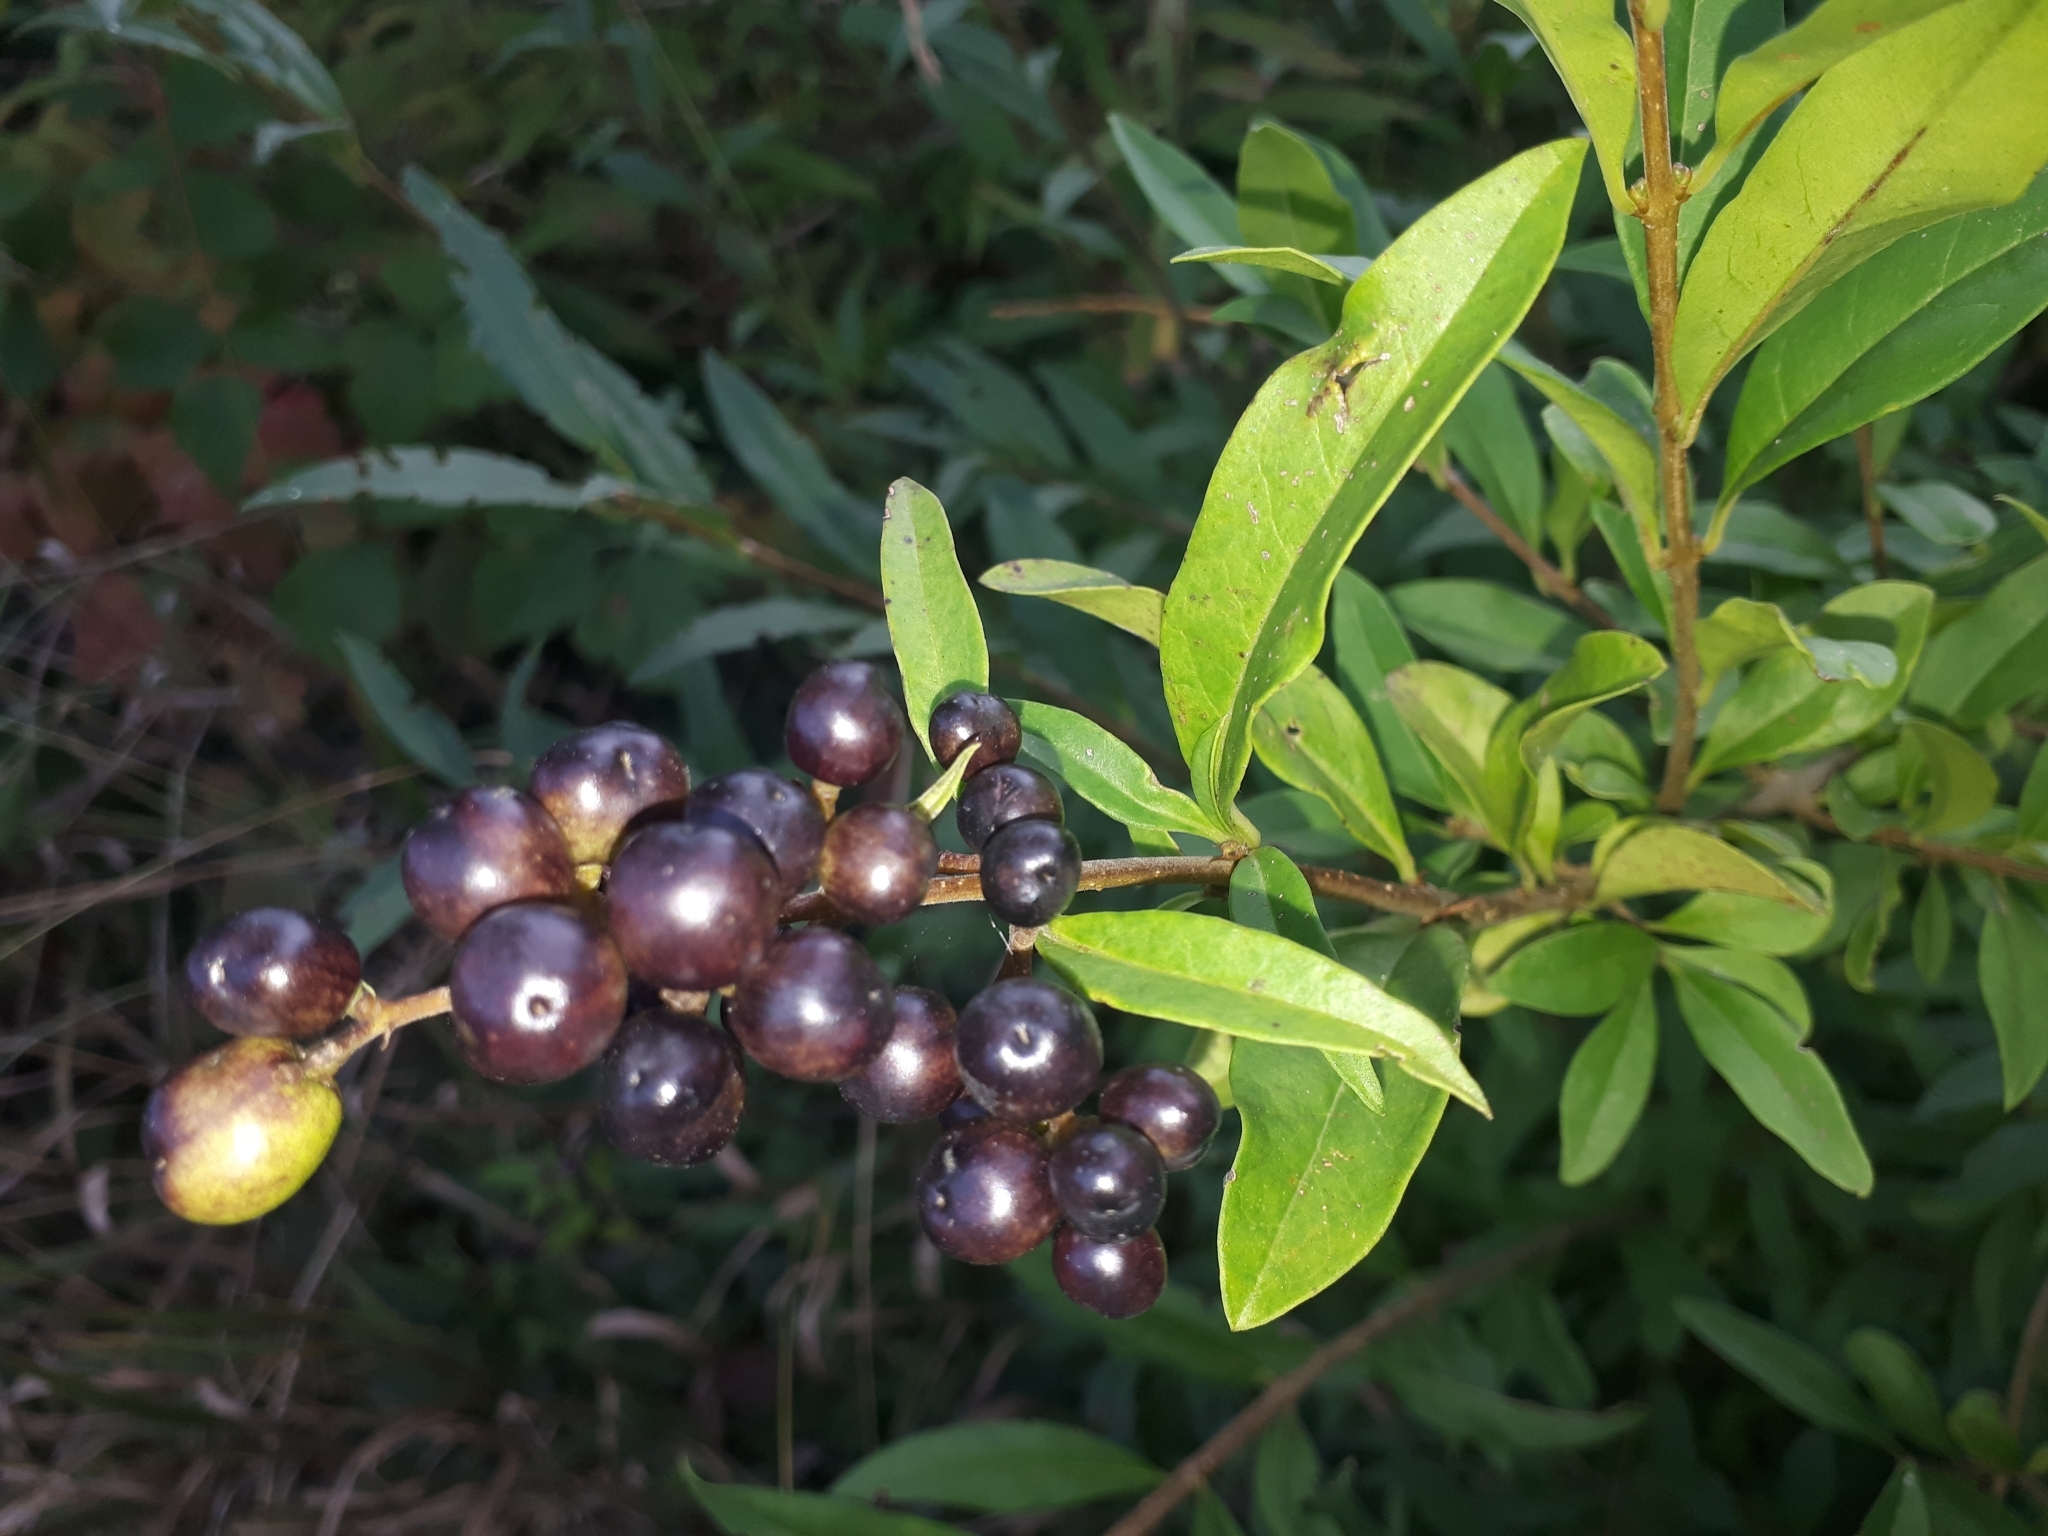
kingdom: Plantae
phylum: Tracheophyta
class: Magnoliopsida
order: Lamiales
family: Oleaceae
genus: Ligustrum
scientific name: Ligustrum vulgare
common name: Wild privet
